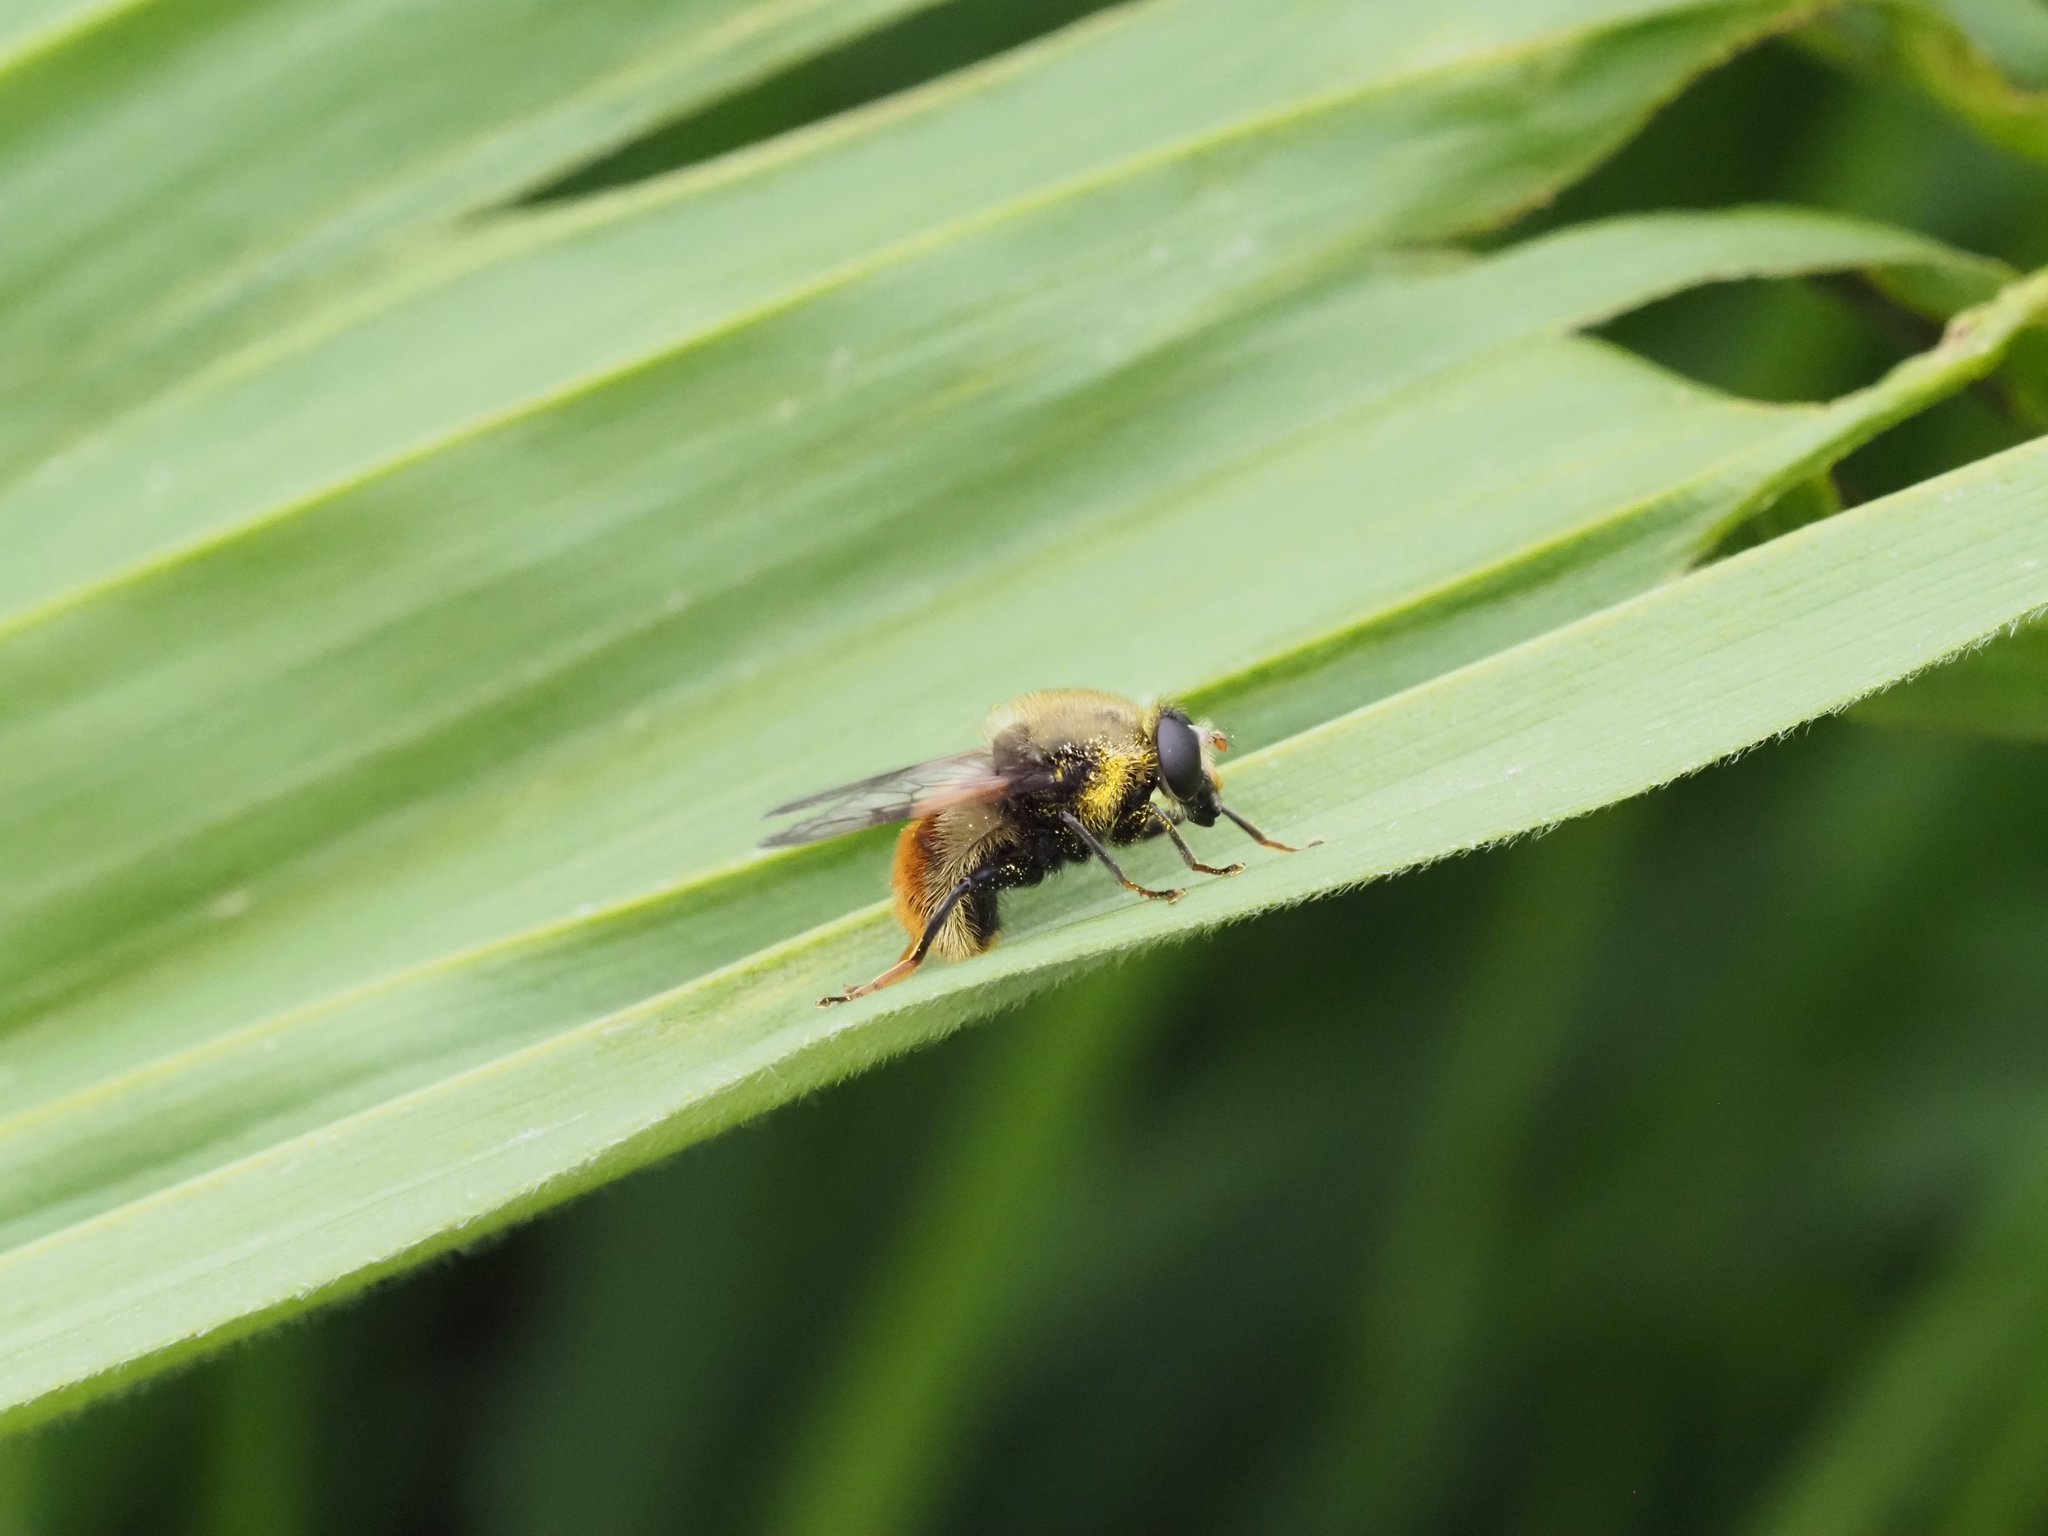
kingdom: Animalia
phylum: Arthropoda
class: Insecta
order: Diptera
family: Syrphidae
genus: Sericomyia
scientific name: Sericomyia flagrans
